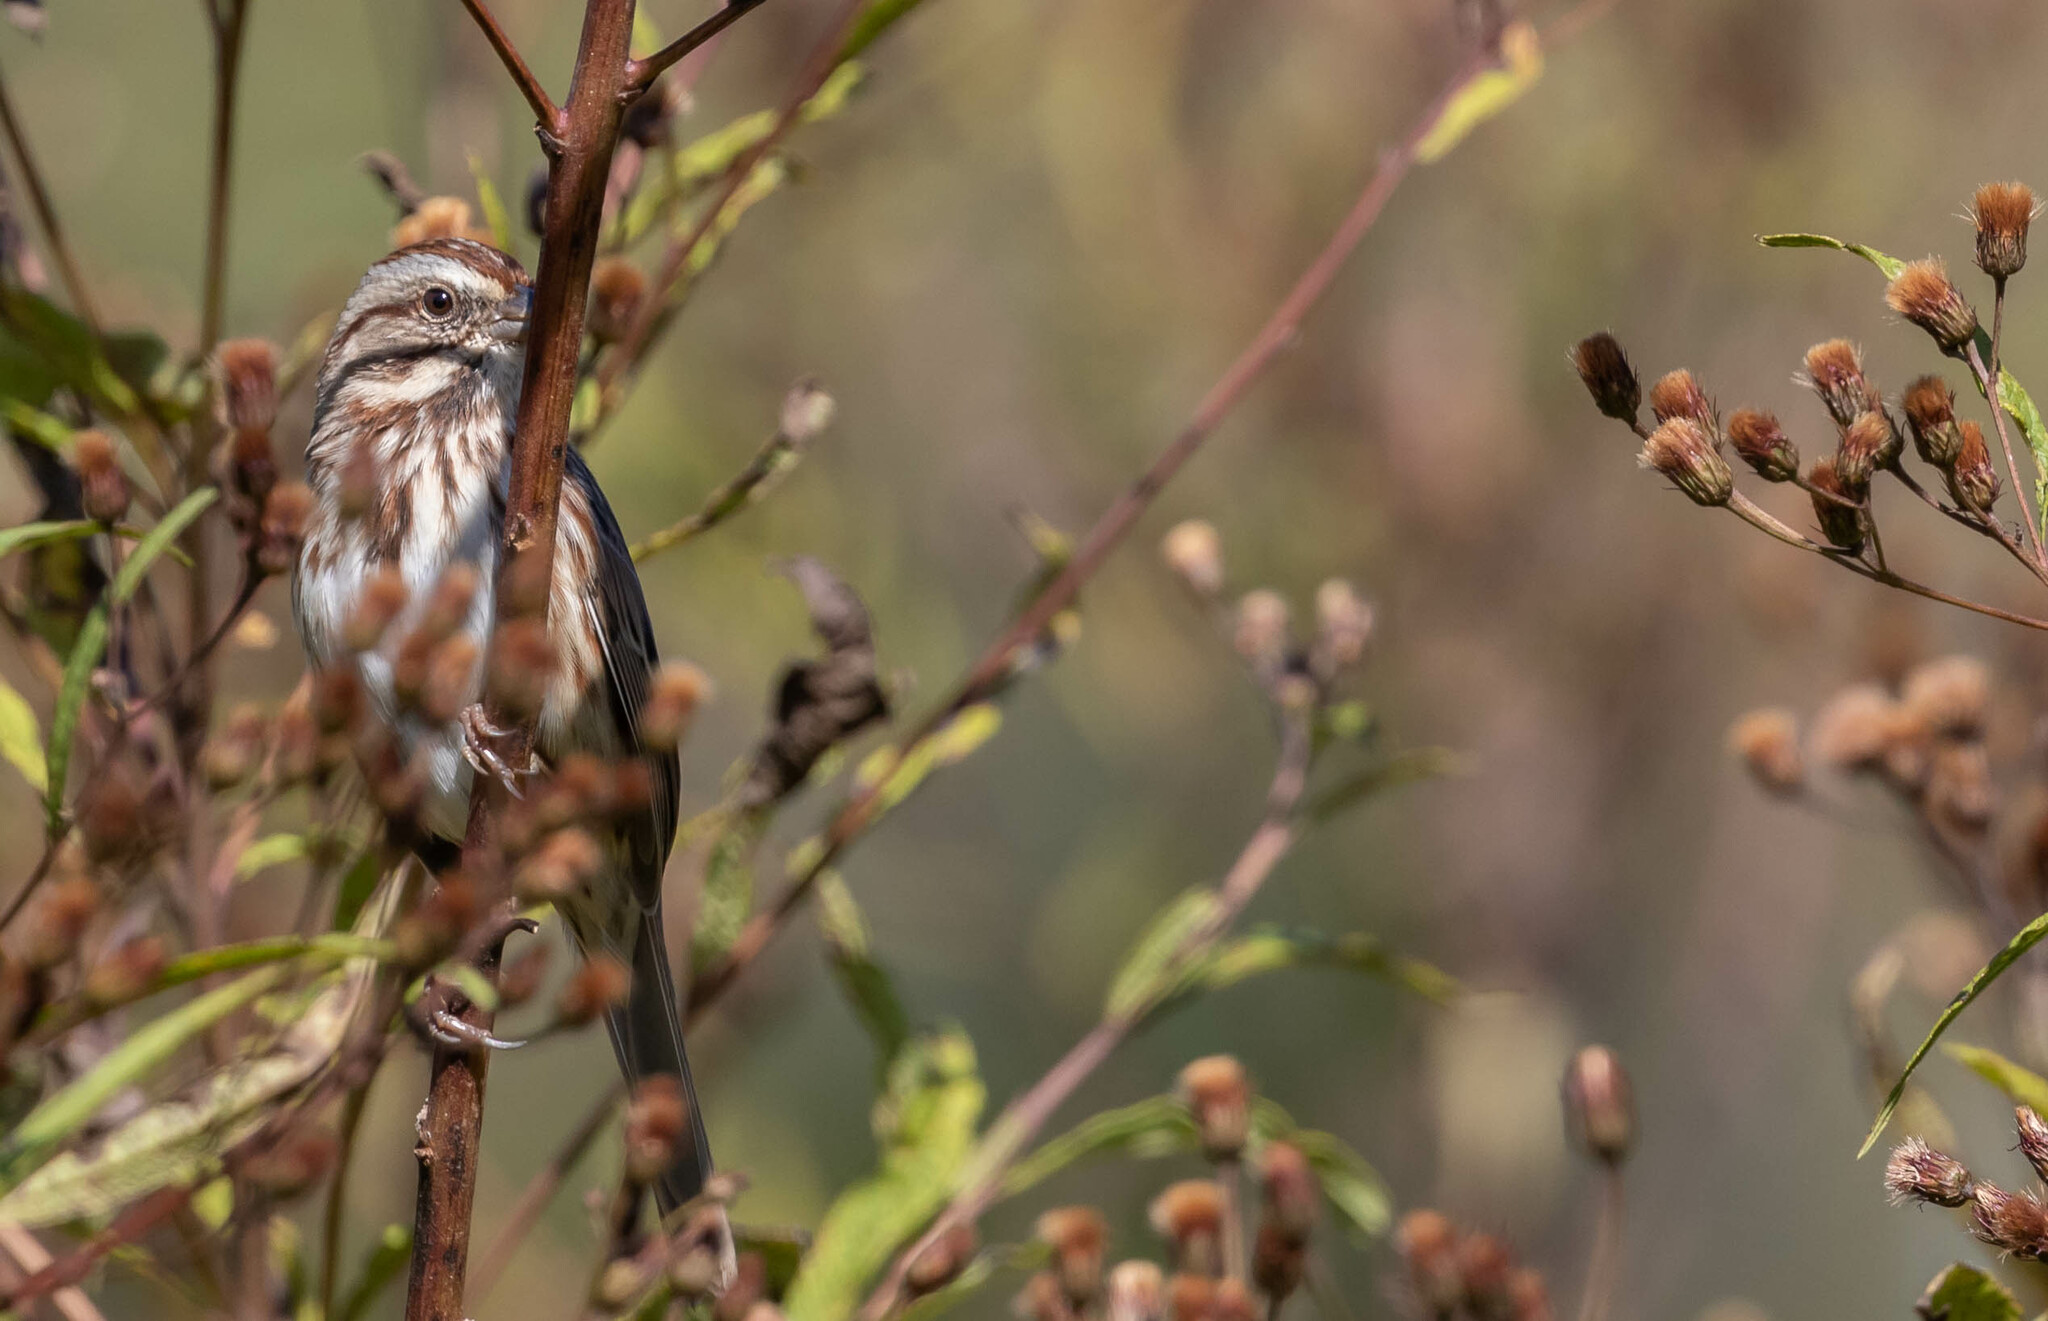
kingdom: Animalia
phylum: Chordata
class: Aves
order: Passeriformes
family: Passerellidae
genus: Melospiza
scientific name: Melospiza melodia
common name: Song sparrow
